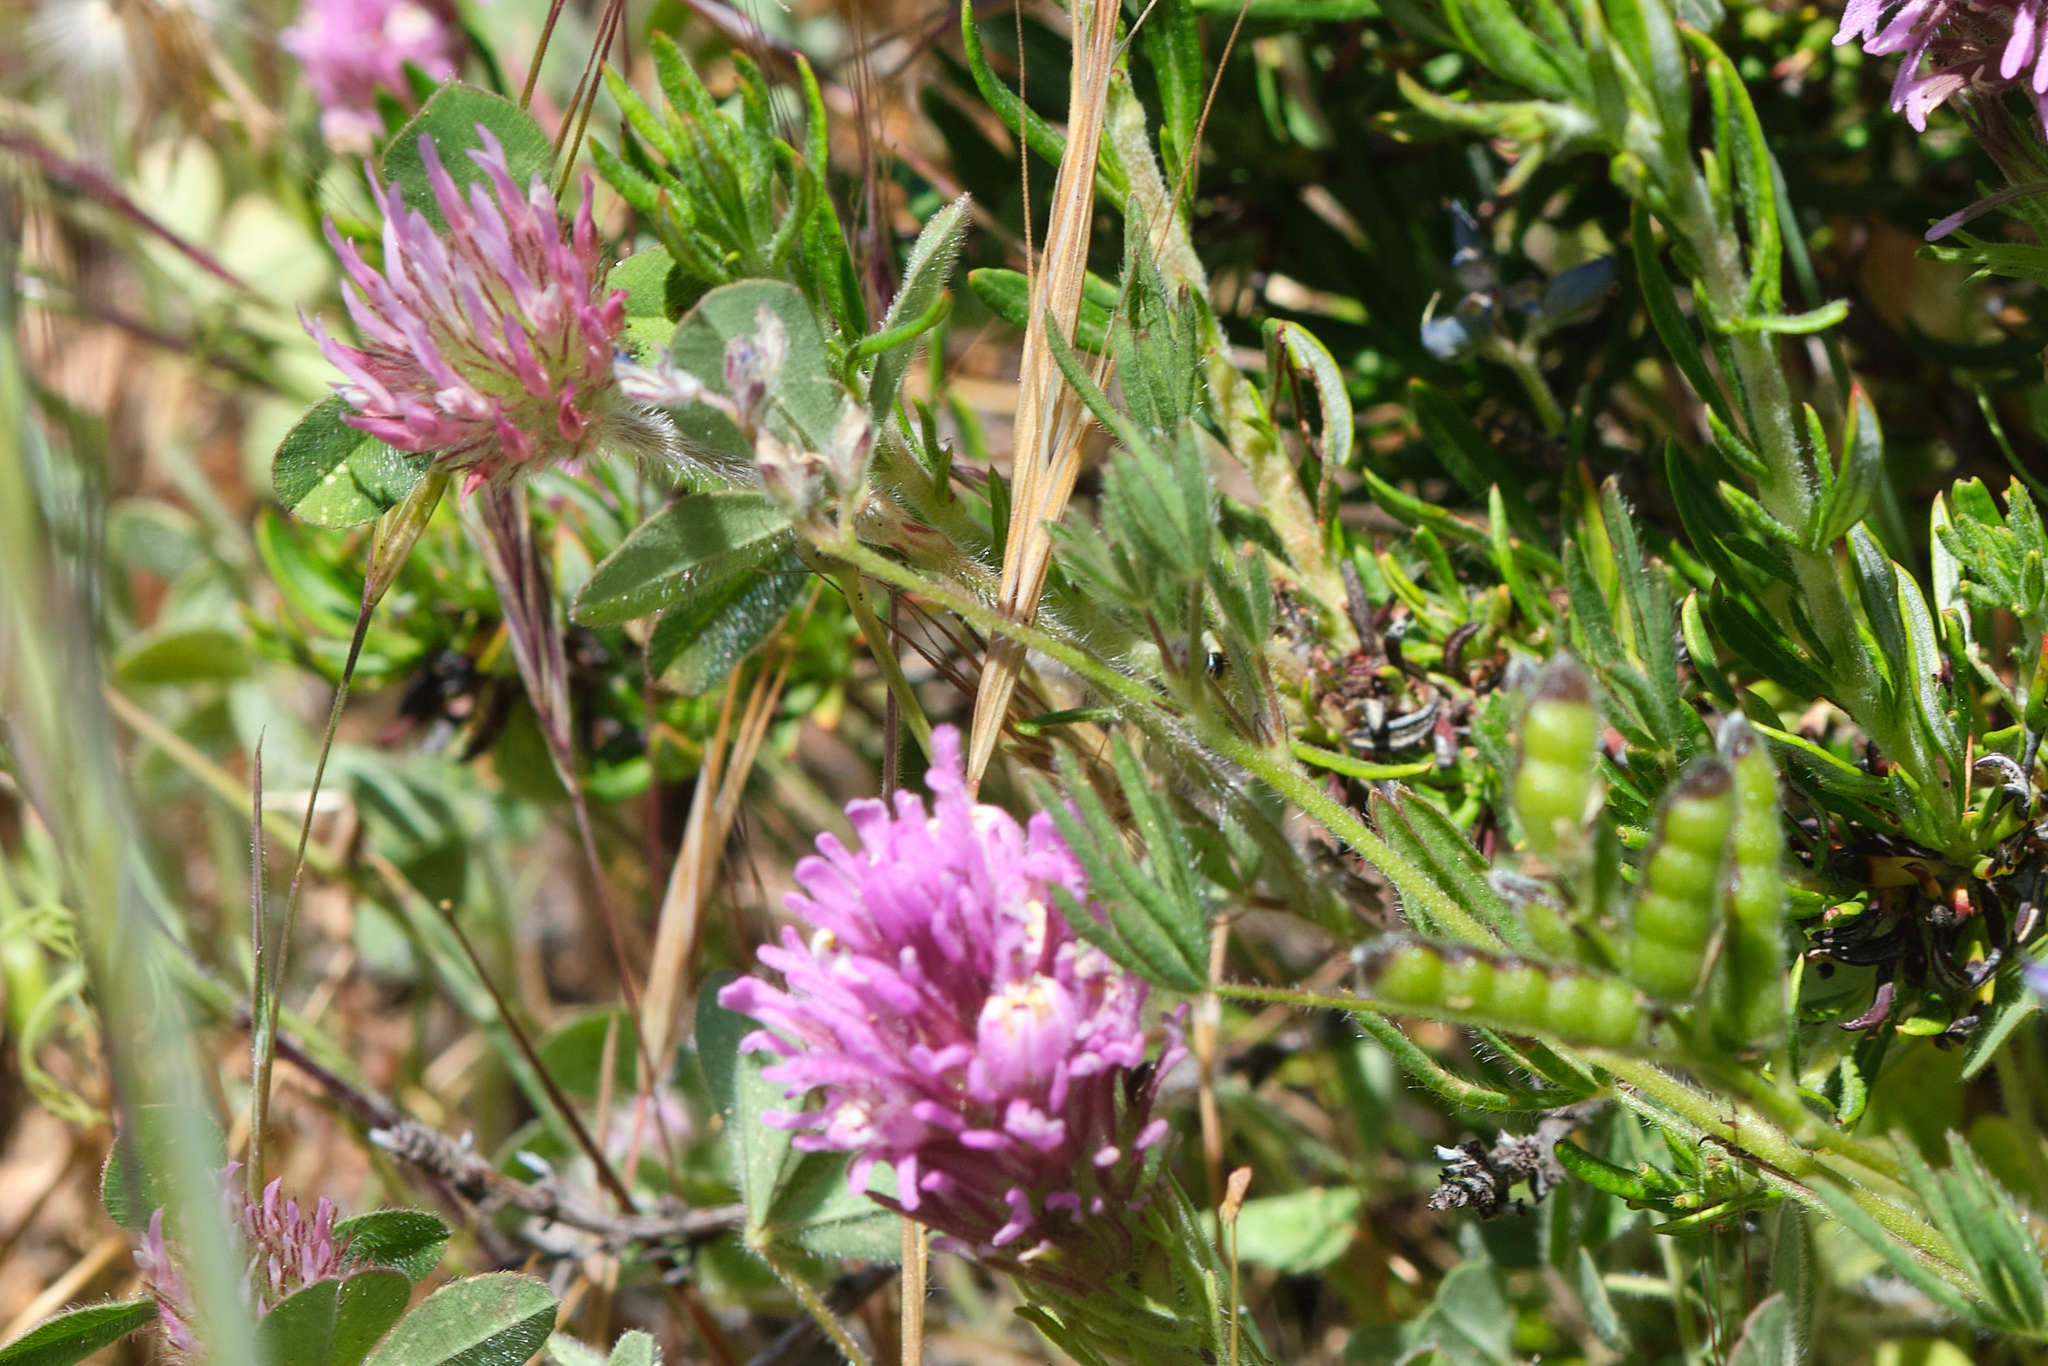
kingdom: Plantae
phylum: Tracheophyta
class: Magnoliopsida
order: Fabales
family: Fabaceae
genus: Trifolium
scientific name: Trifolium hirtum
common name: Rose clover
